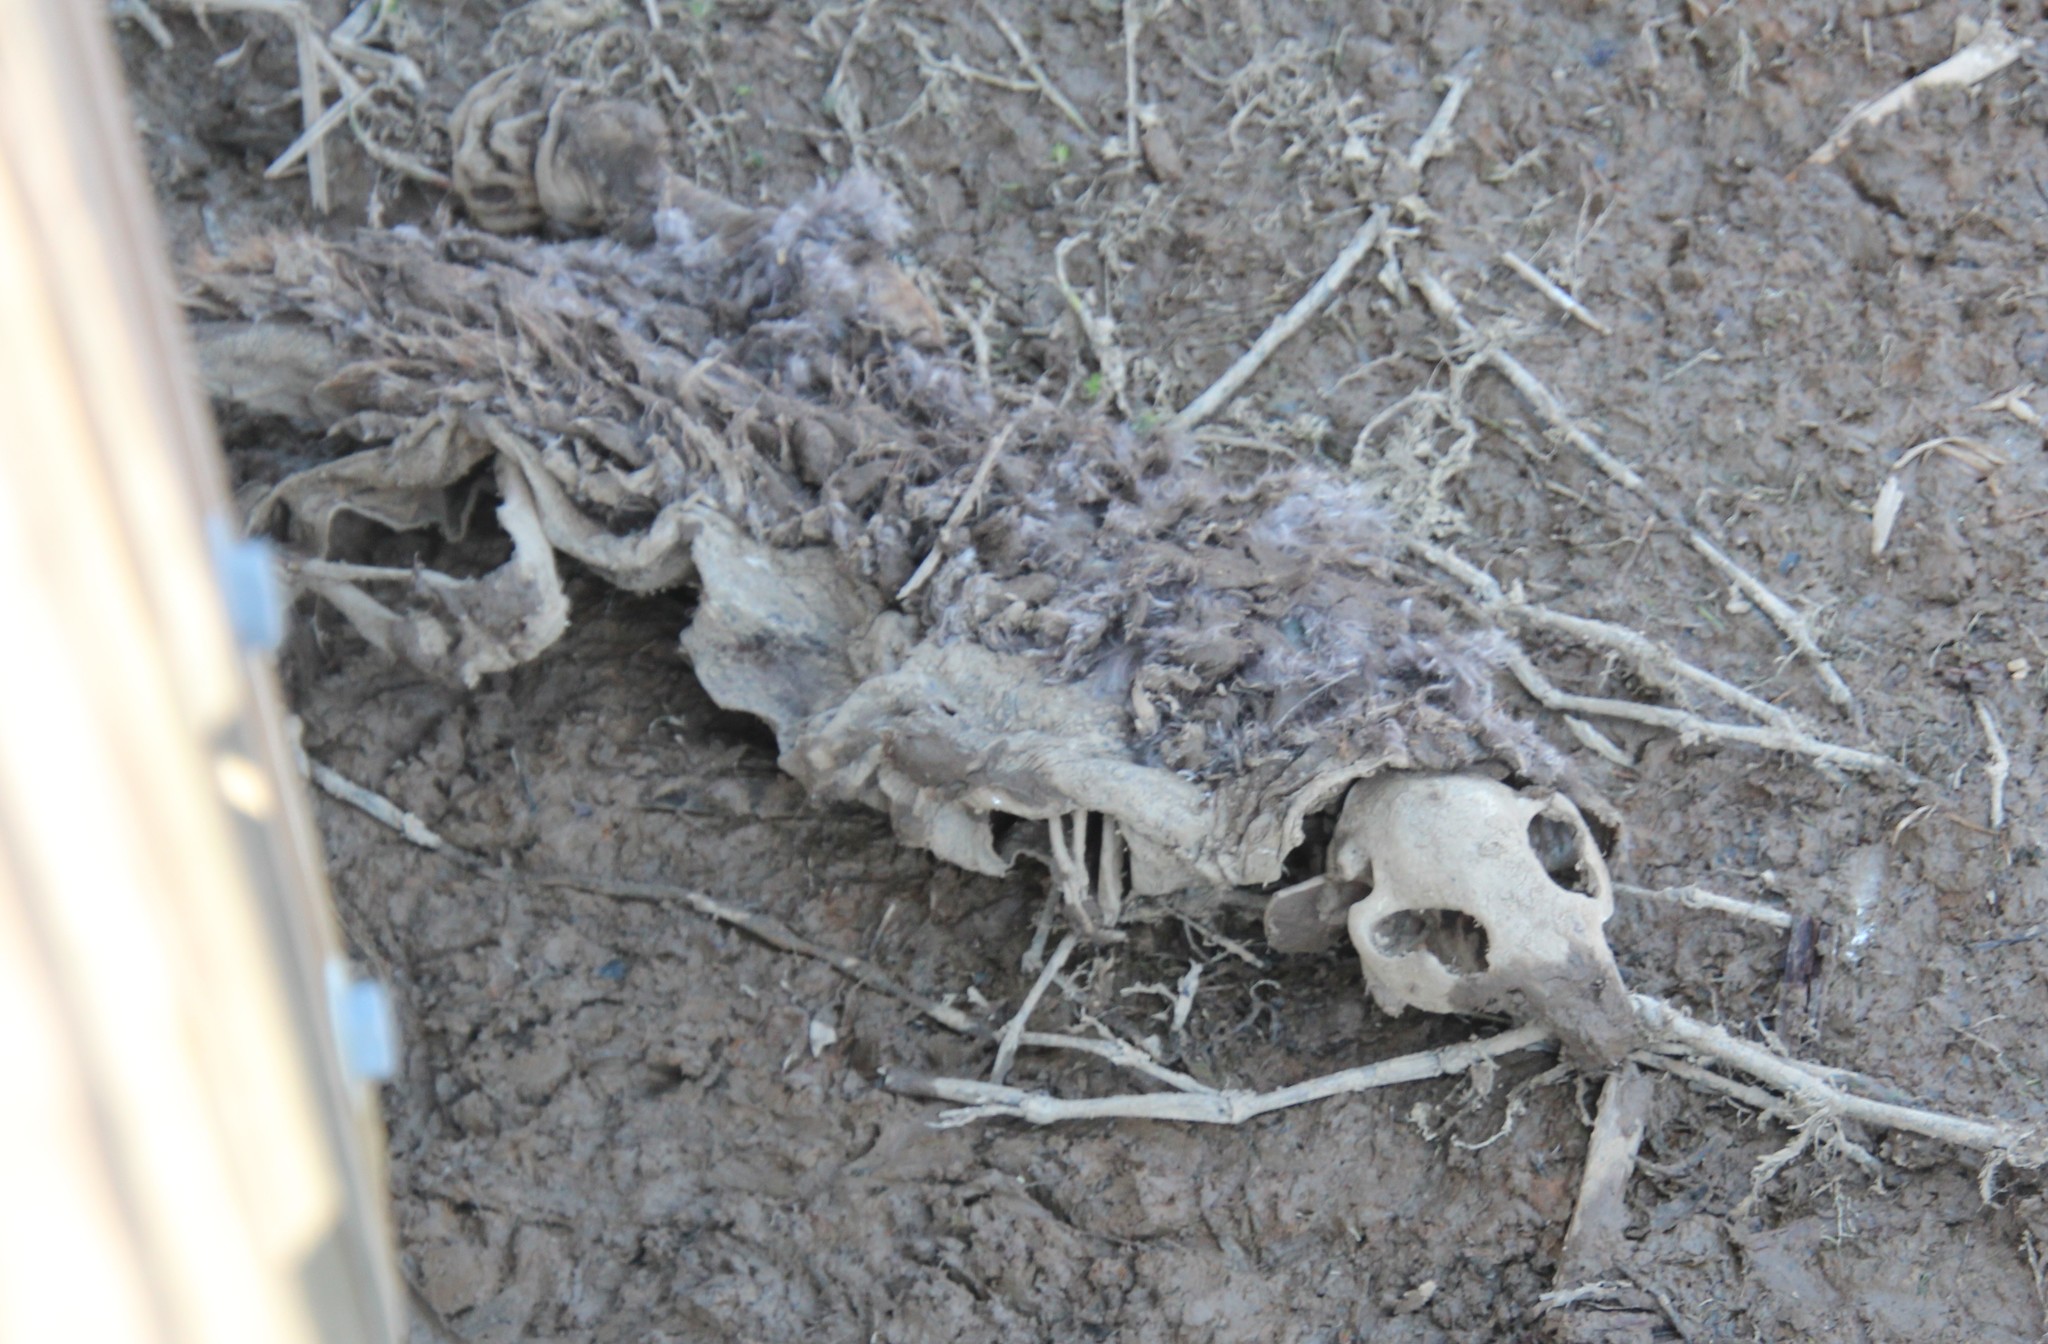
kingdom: Animalia
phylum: Chordata
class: Mammalia
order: Rodentia
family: Castoridae
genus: Castor
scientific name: Castor canadensis
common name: American beaver
